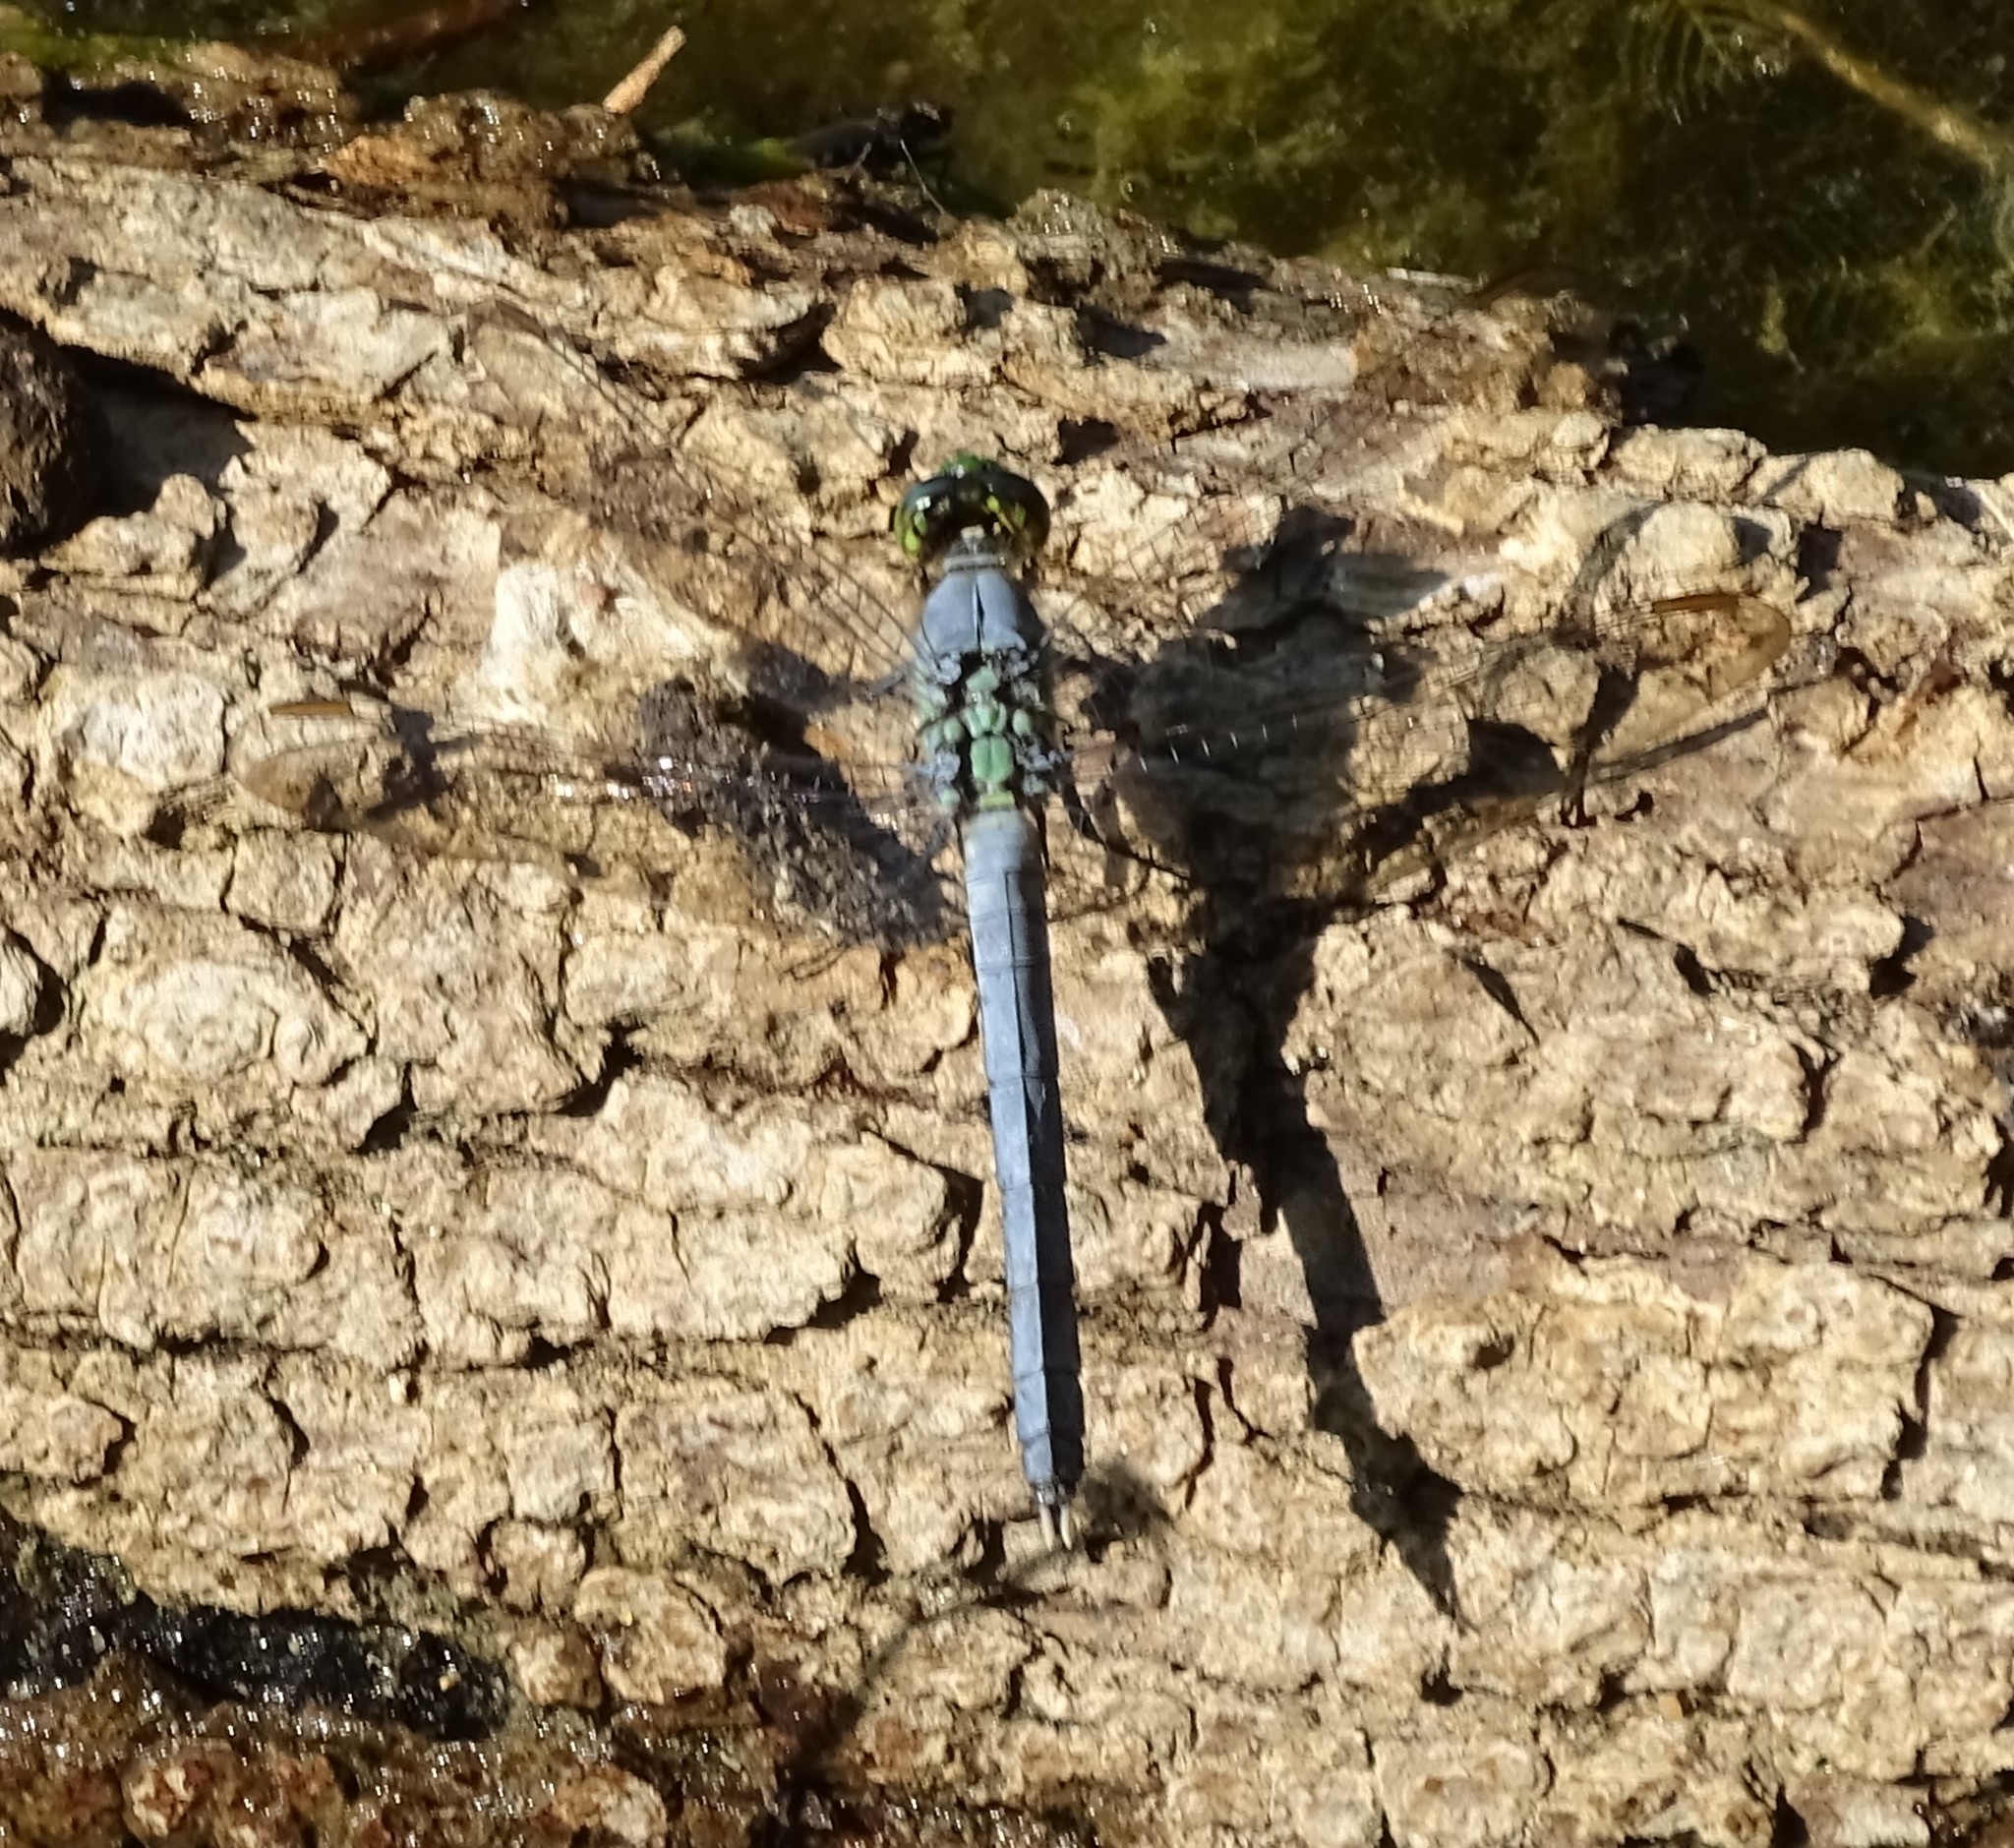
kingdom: Animalia
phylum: Arthropoda
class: Insecta
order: Odonata
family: Libellulidae
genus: Erythemis
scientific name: Erythemis simplicicollis
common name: Eastern pondhawk
